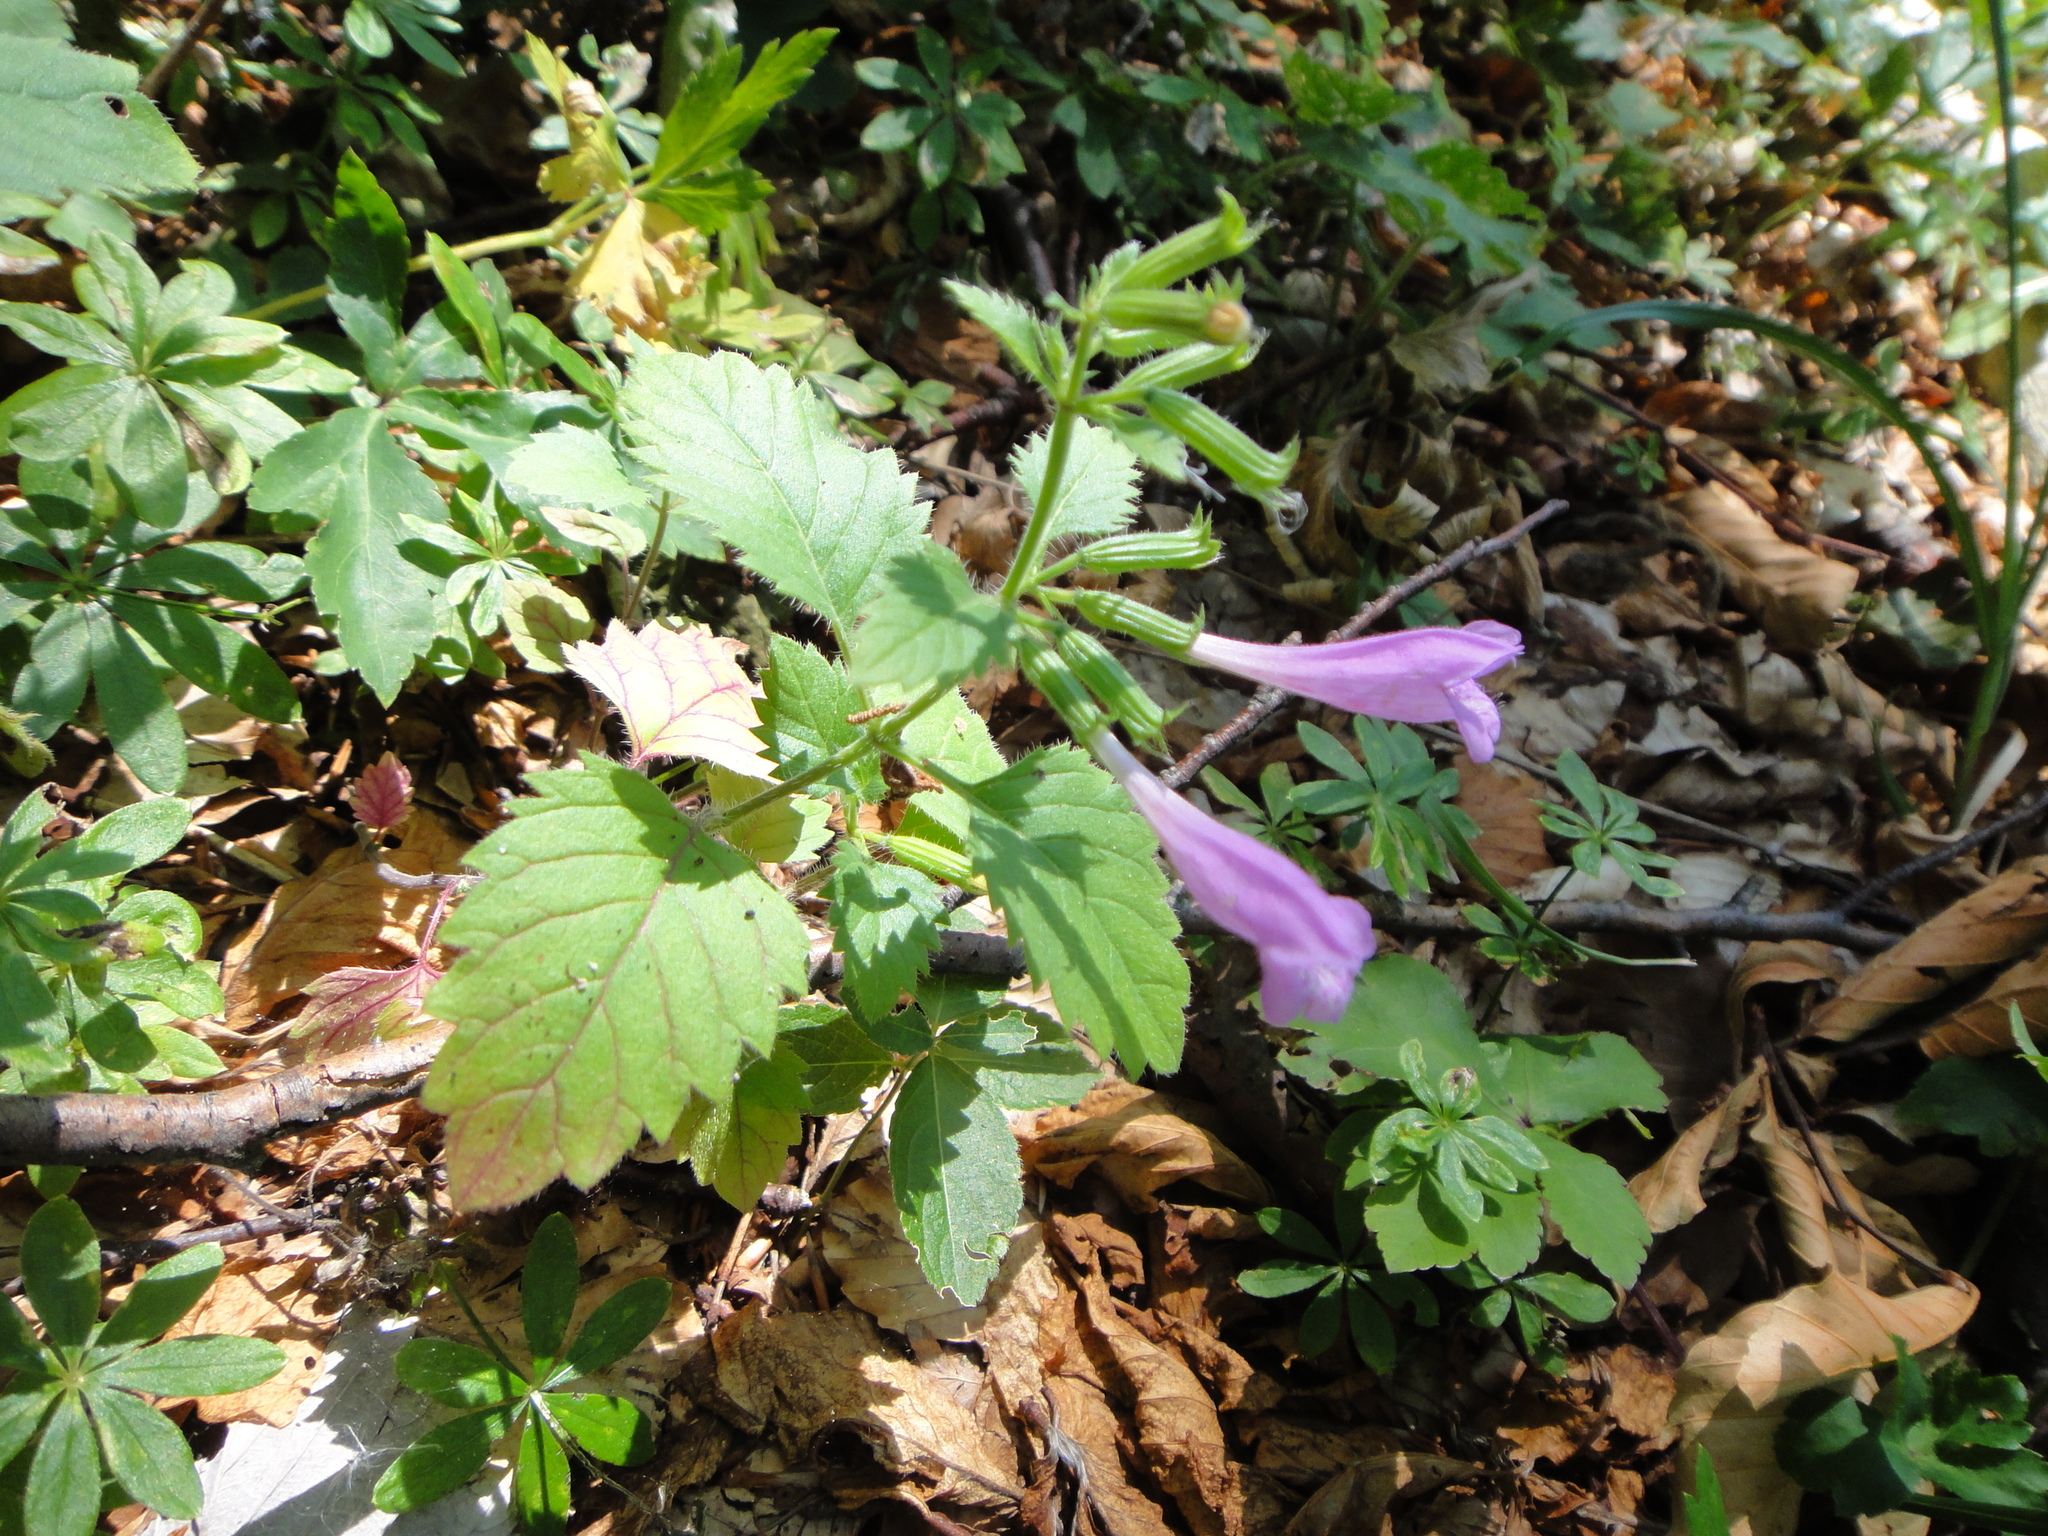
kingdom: Plantae
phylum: Tracheophyta
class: Magnoliopsida
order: Lamiales
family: Lamiaceae
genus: Clinopodium
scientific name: Clinopodium grandiflorum
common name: Greater calamint
